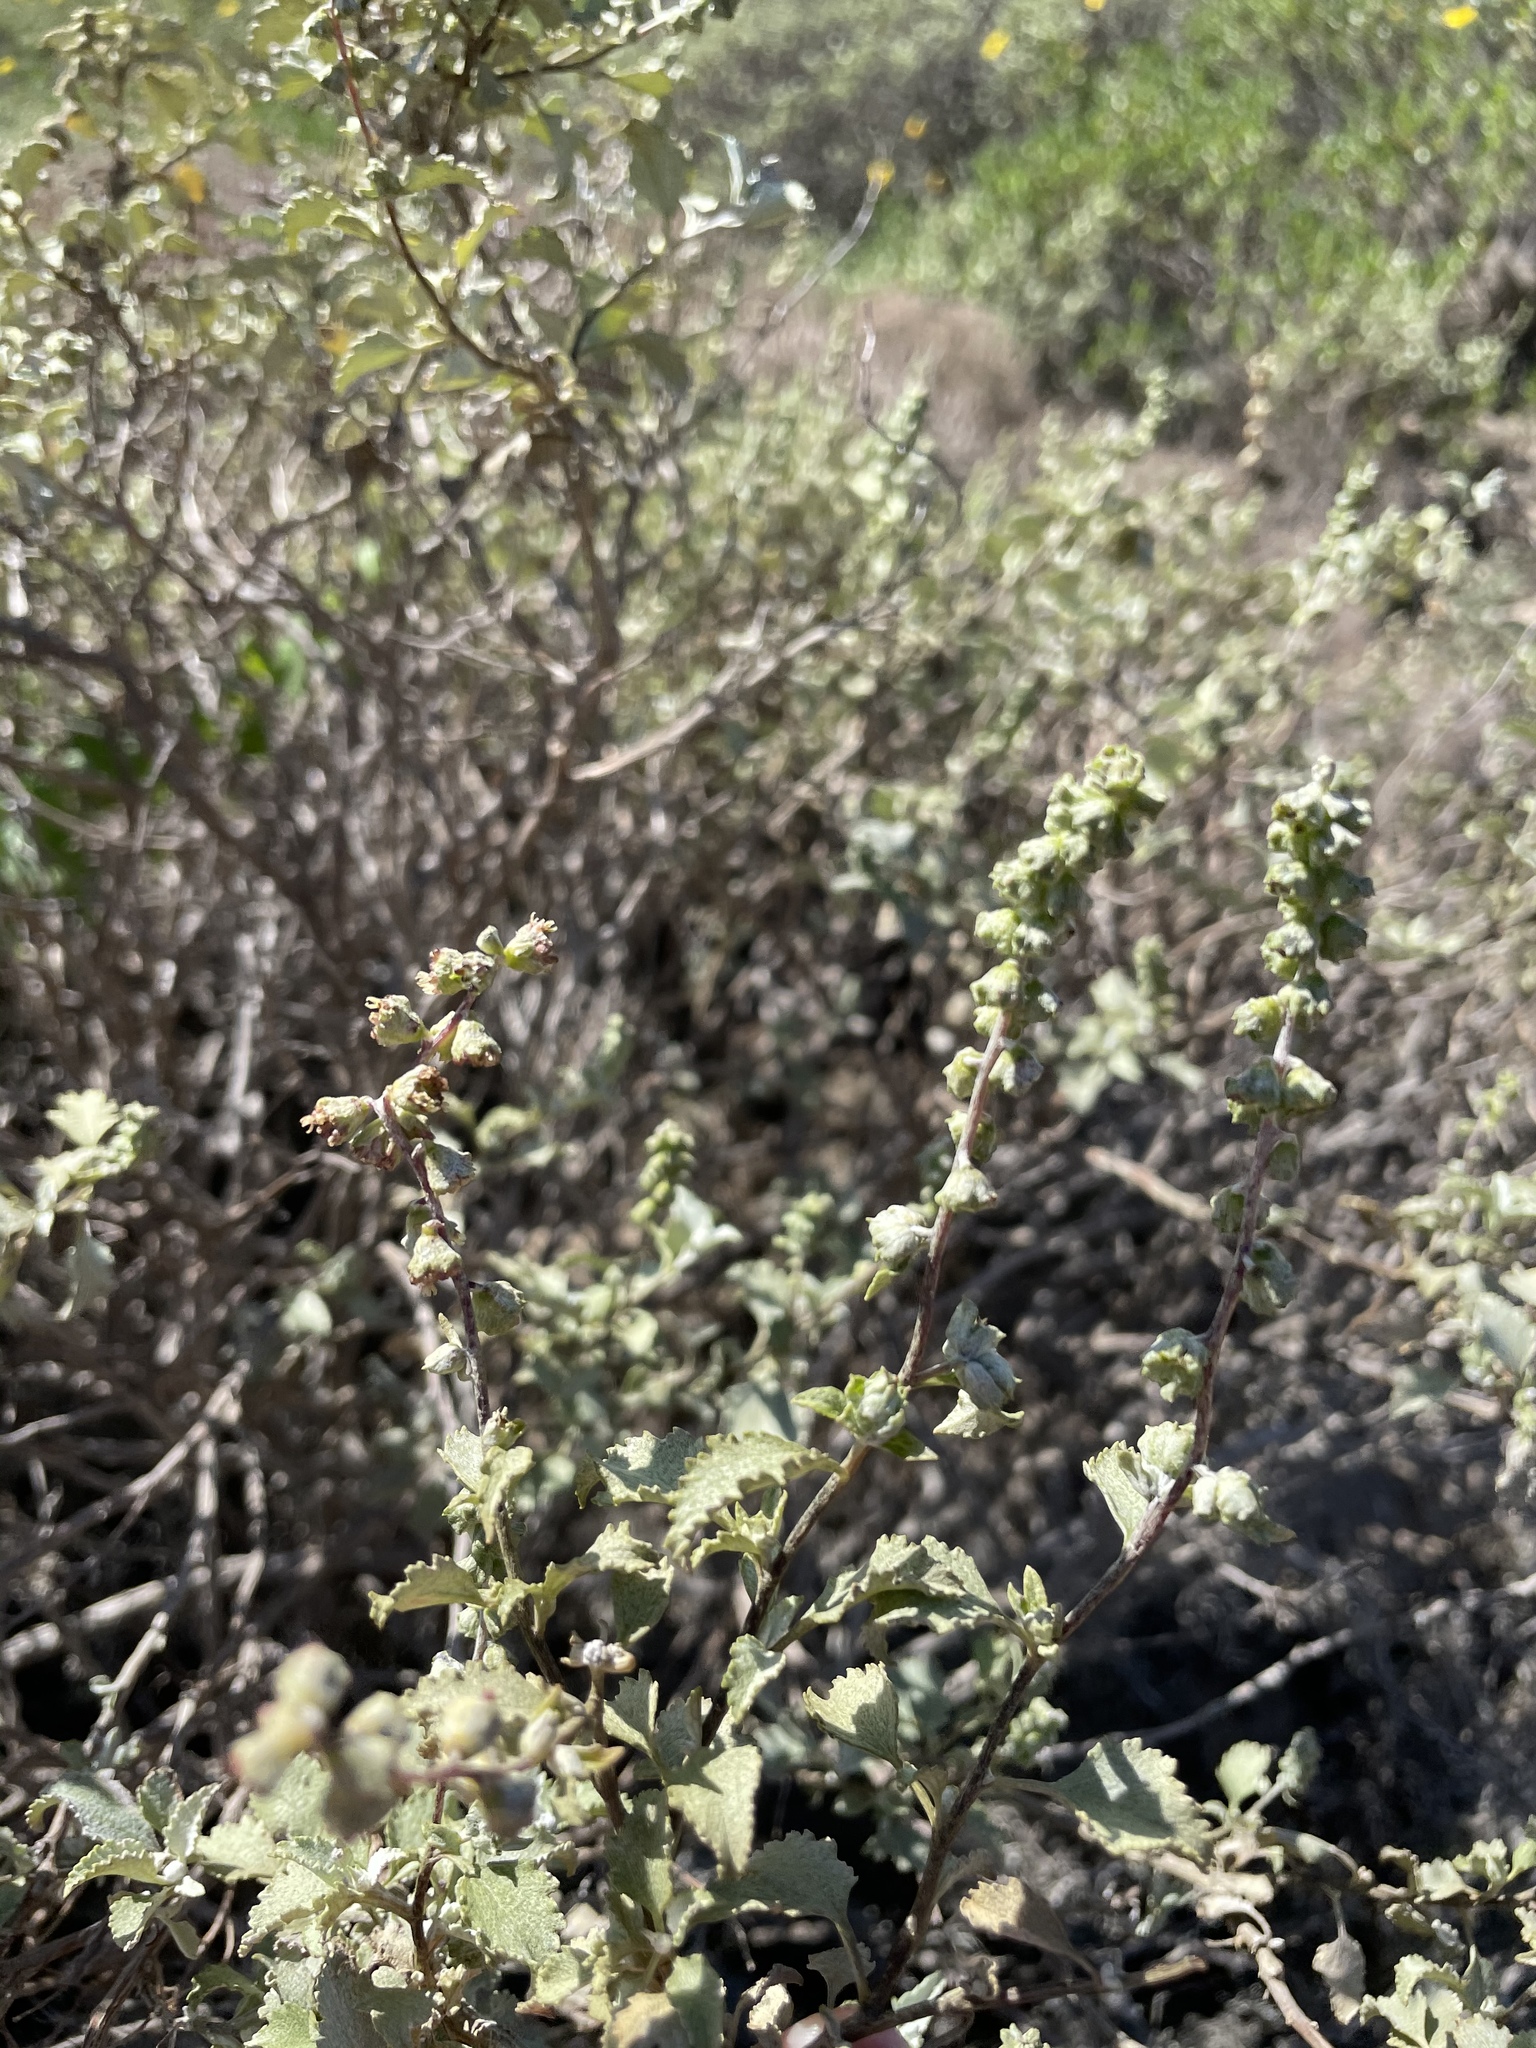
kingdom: Plantae
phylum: Tracheophyta
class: Magnoliopsida
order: Asterales
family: Asteraceae
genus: Ambrosia
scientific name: Ambrosia chenopodiifolia
